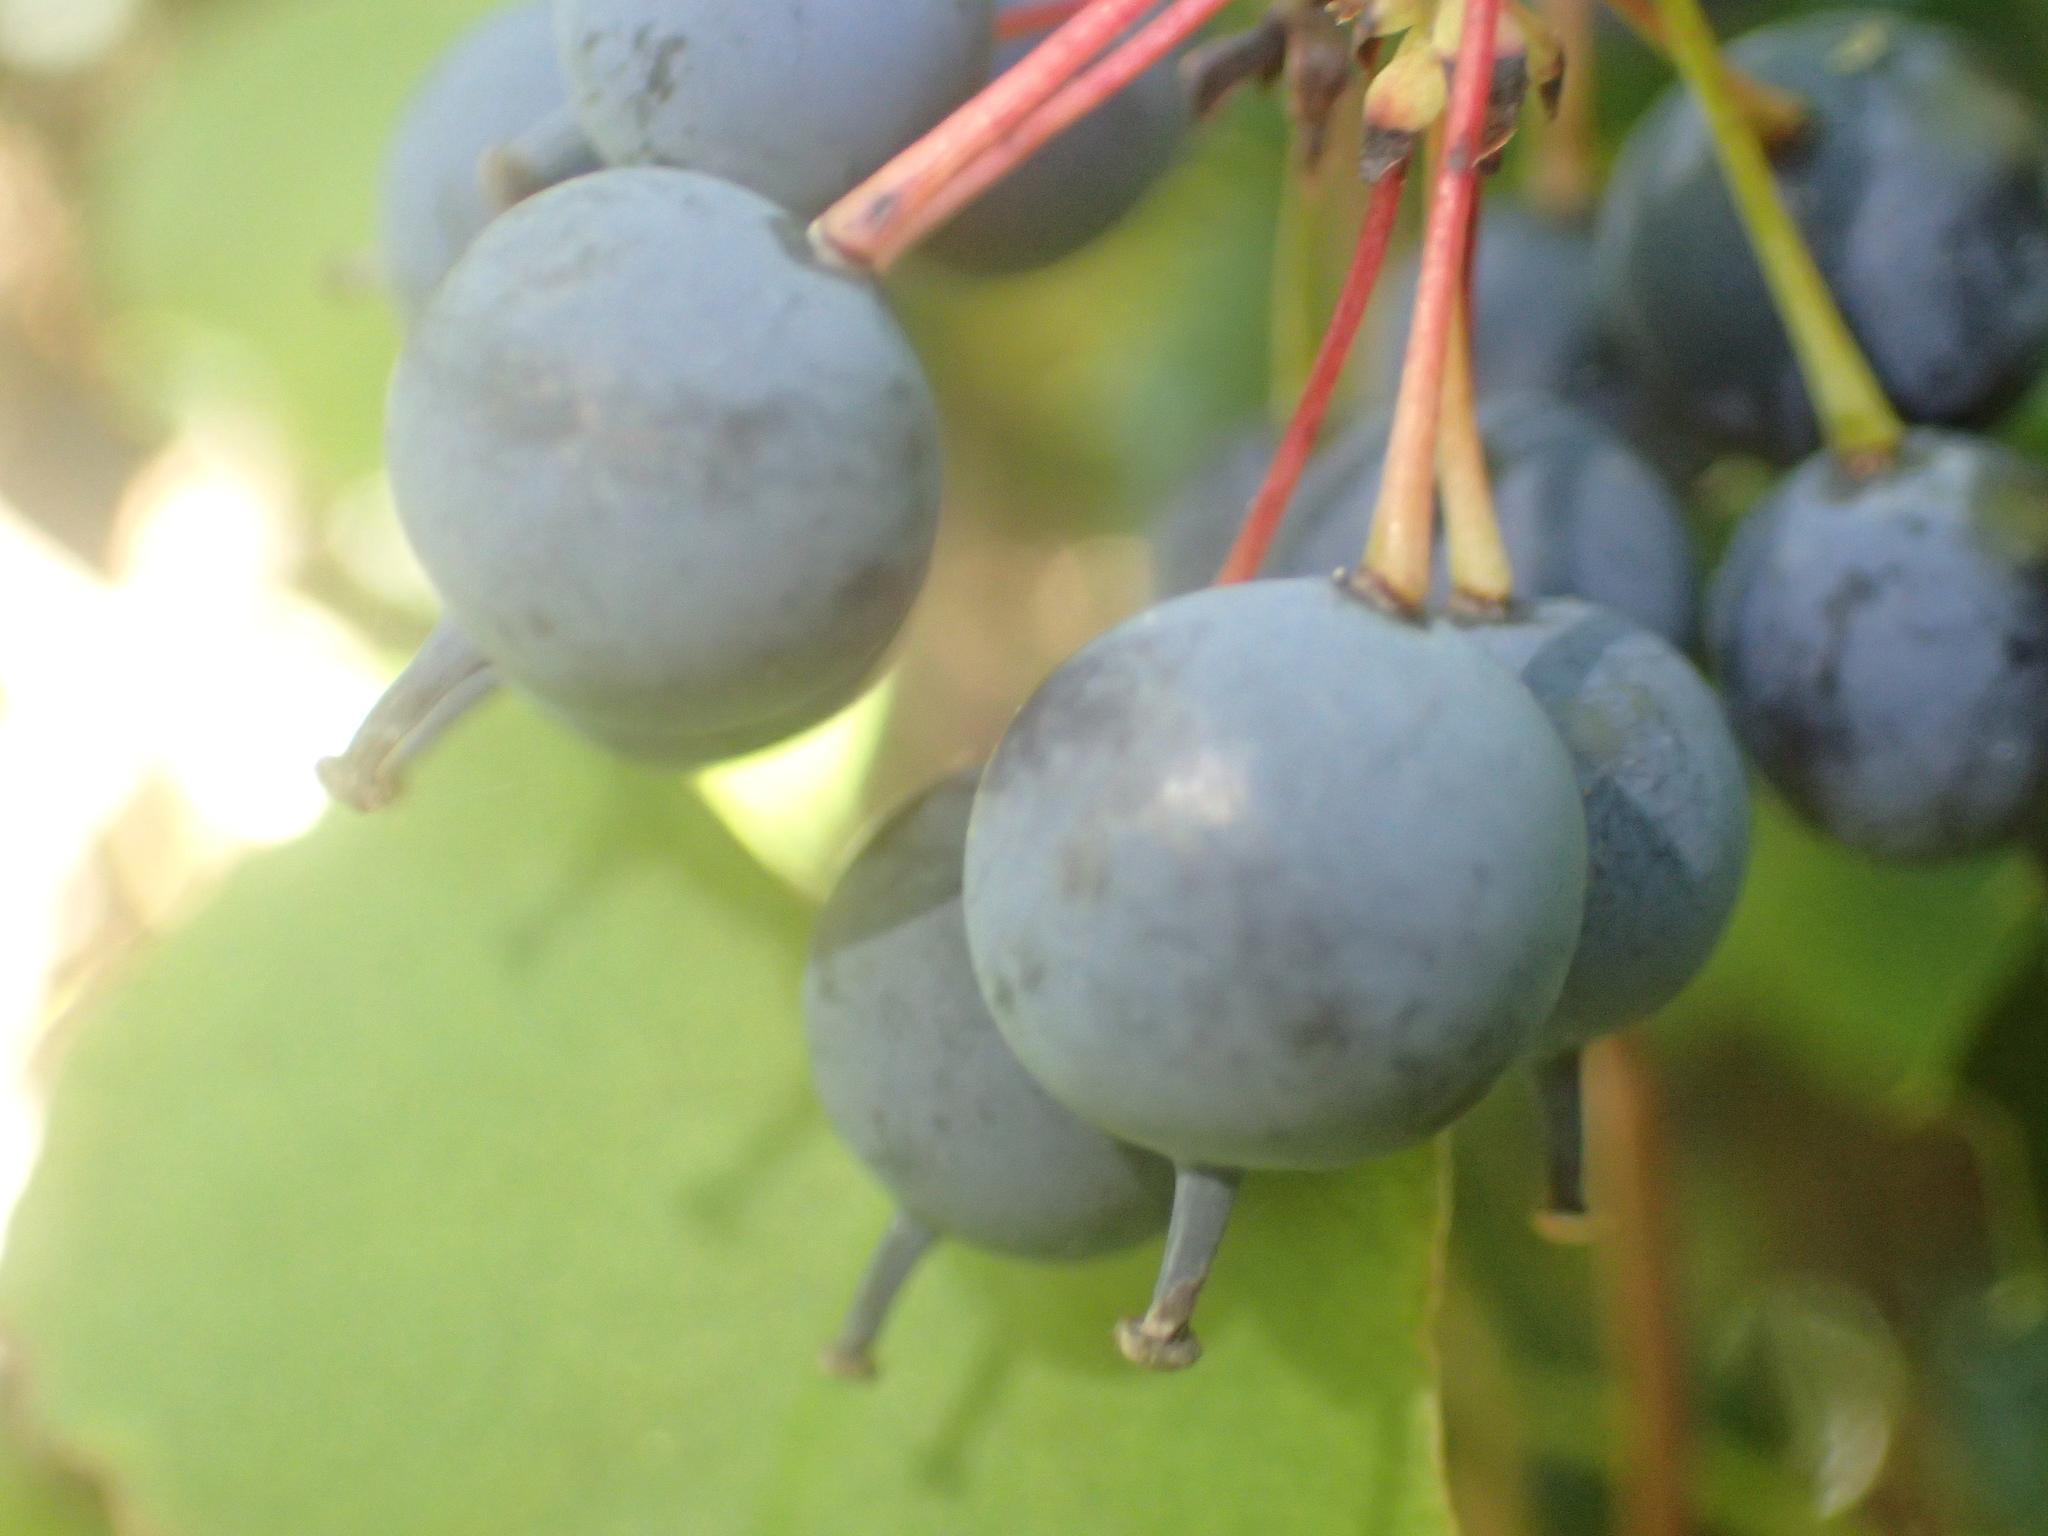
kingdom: Plantae
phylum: Tracheophyta
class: Magnoliopsida
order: Ranunculales
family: Berberidaceae
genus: Berberis
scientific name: Berberis darwinii
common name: Darwin's barberry
